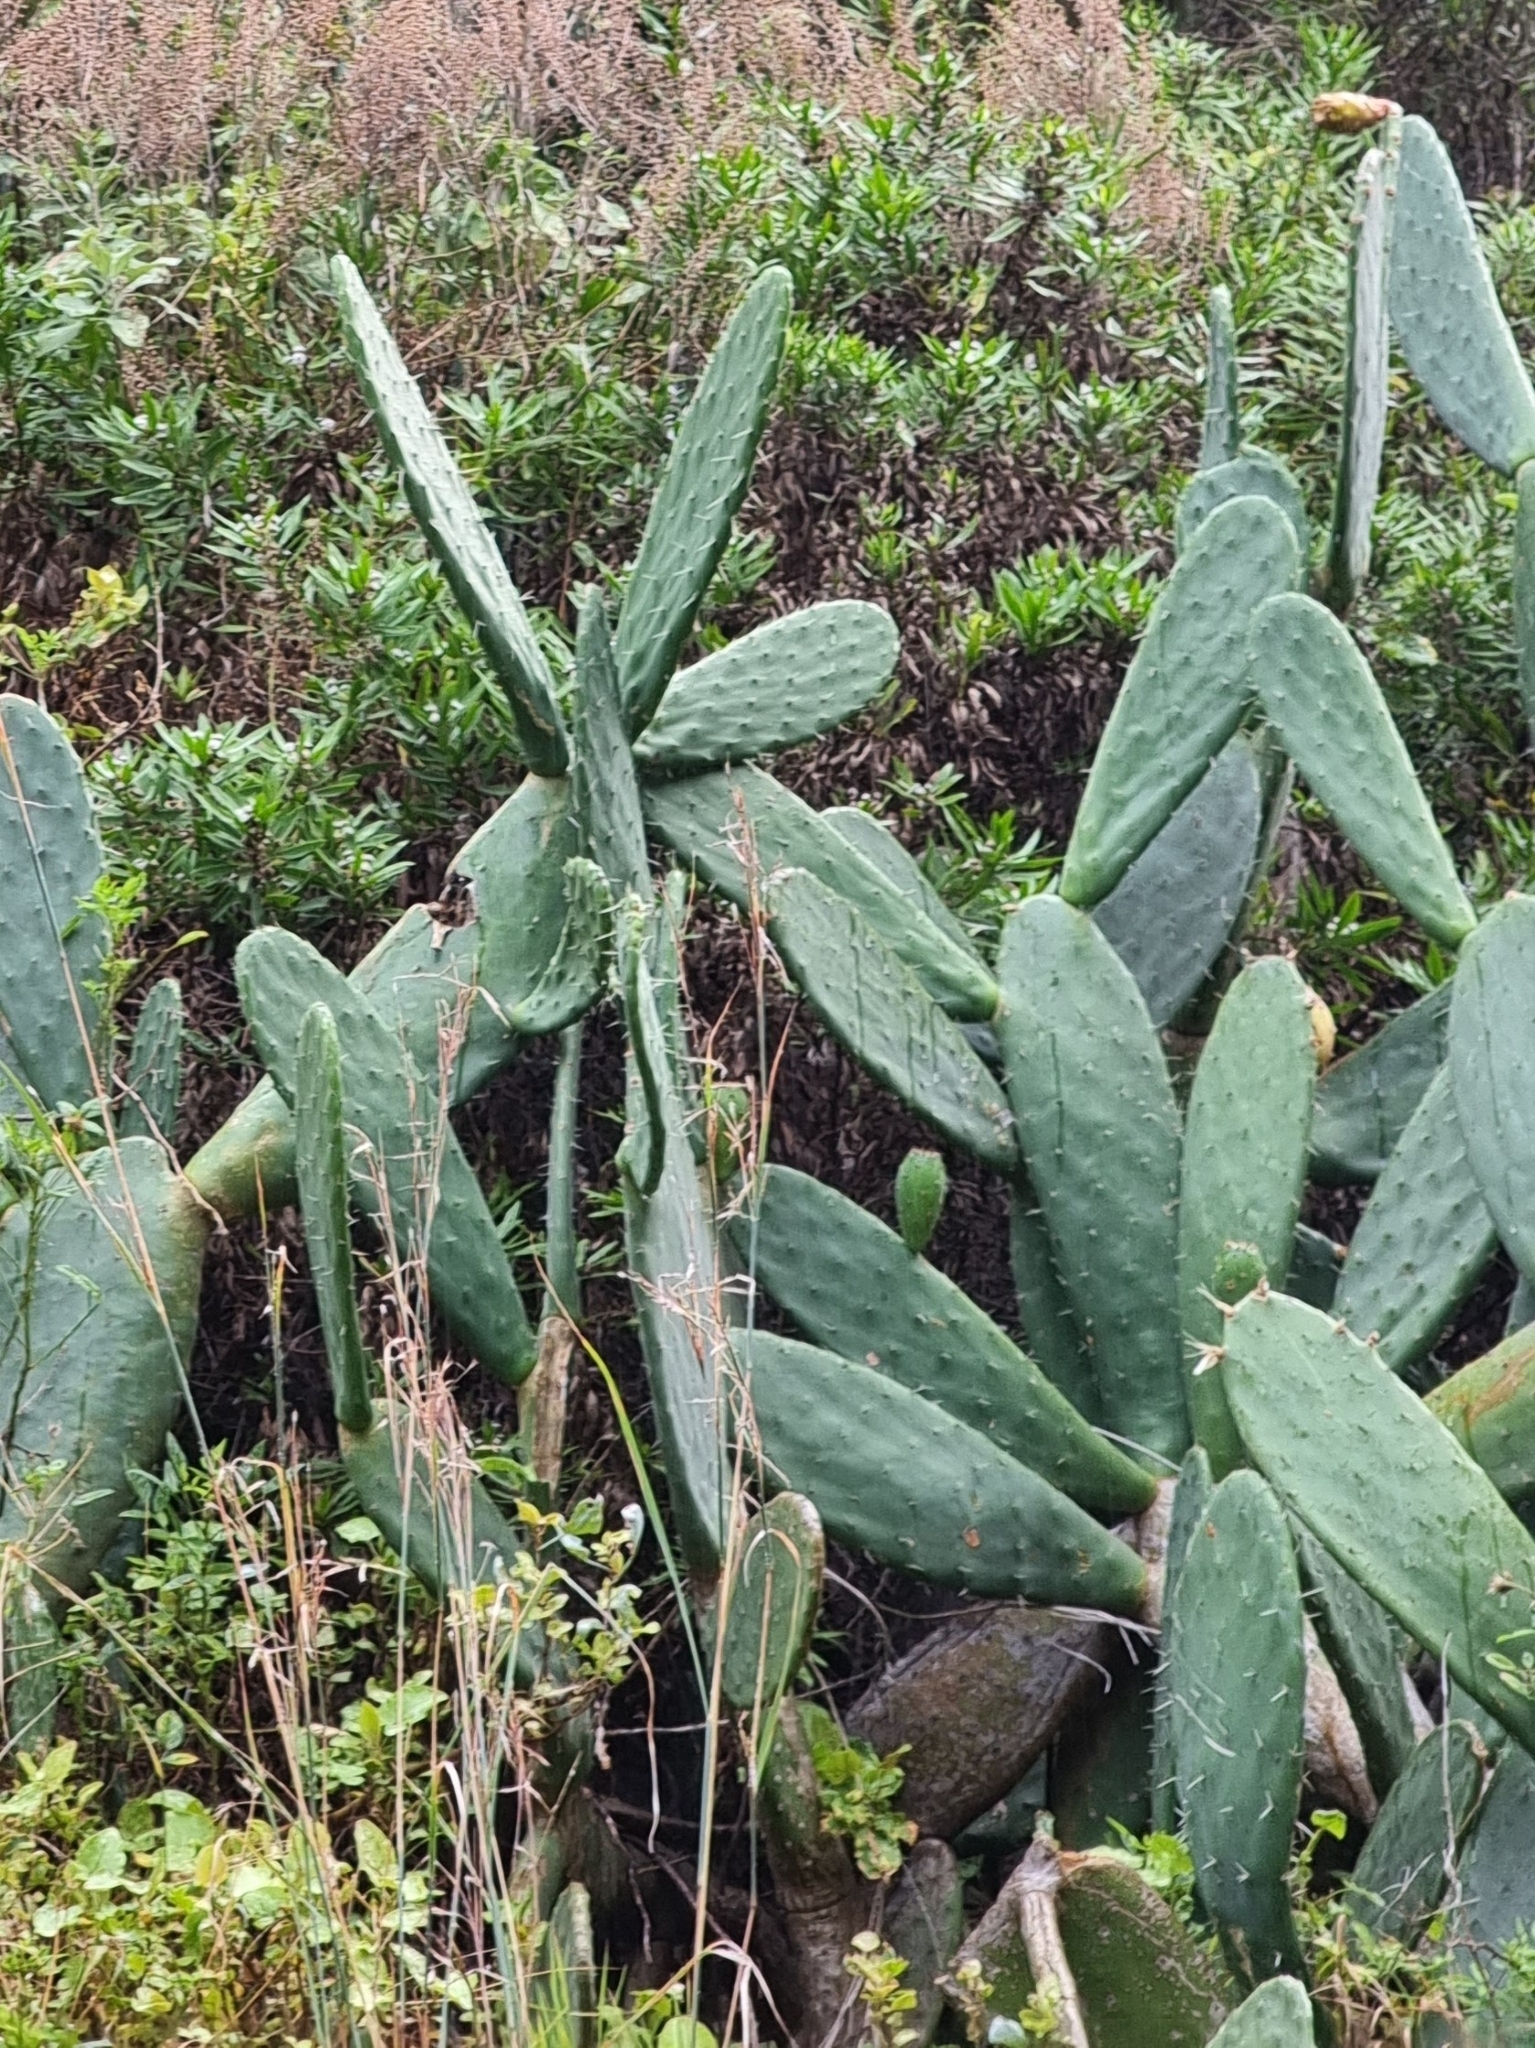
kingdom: Plantae
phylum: Tracheophyta
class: Magnoliopsida
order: Caryophyllales
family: Cactaceae
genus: Opuntia
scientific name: Opuntia ficus-indica
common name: Barbary fig
